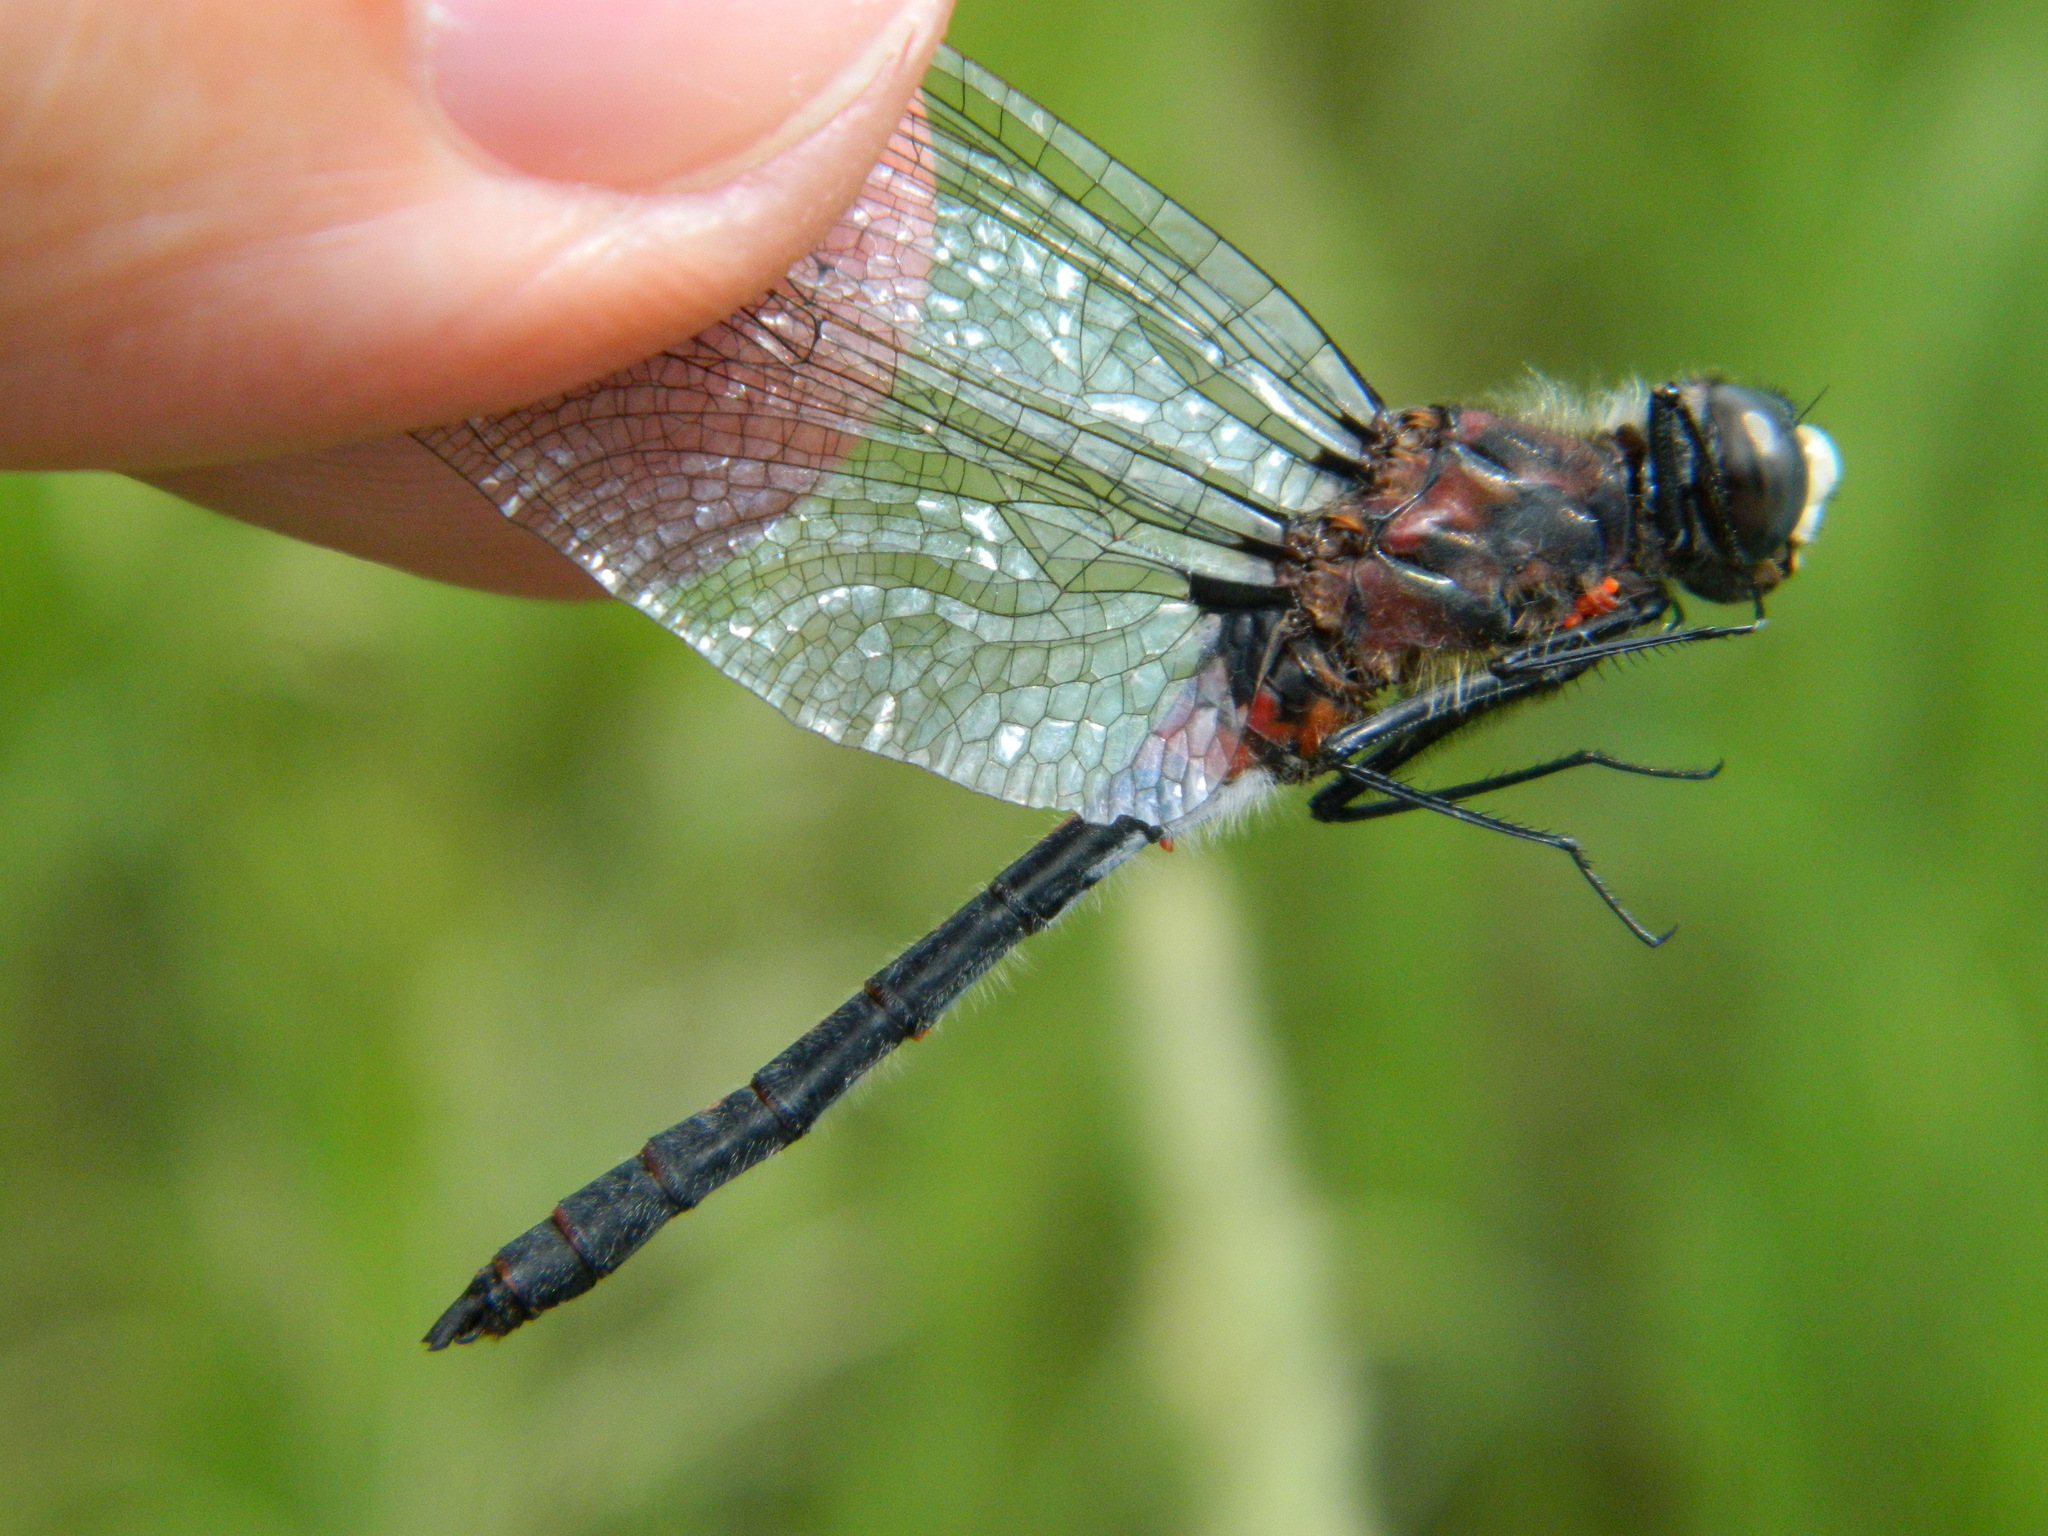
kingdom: Animalia
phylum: Arthropoda
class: Insecta
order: Odonata
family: Libellulidae
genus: Leucorrhinia
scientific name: Leucorrhinia glacialis
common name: Crimson-ringed whiteface
